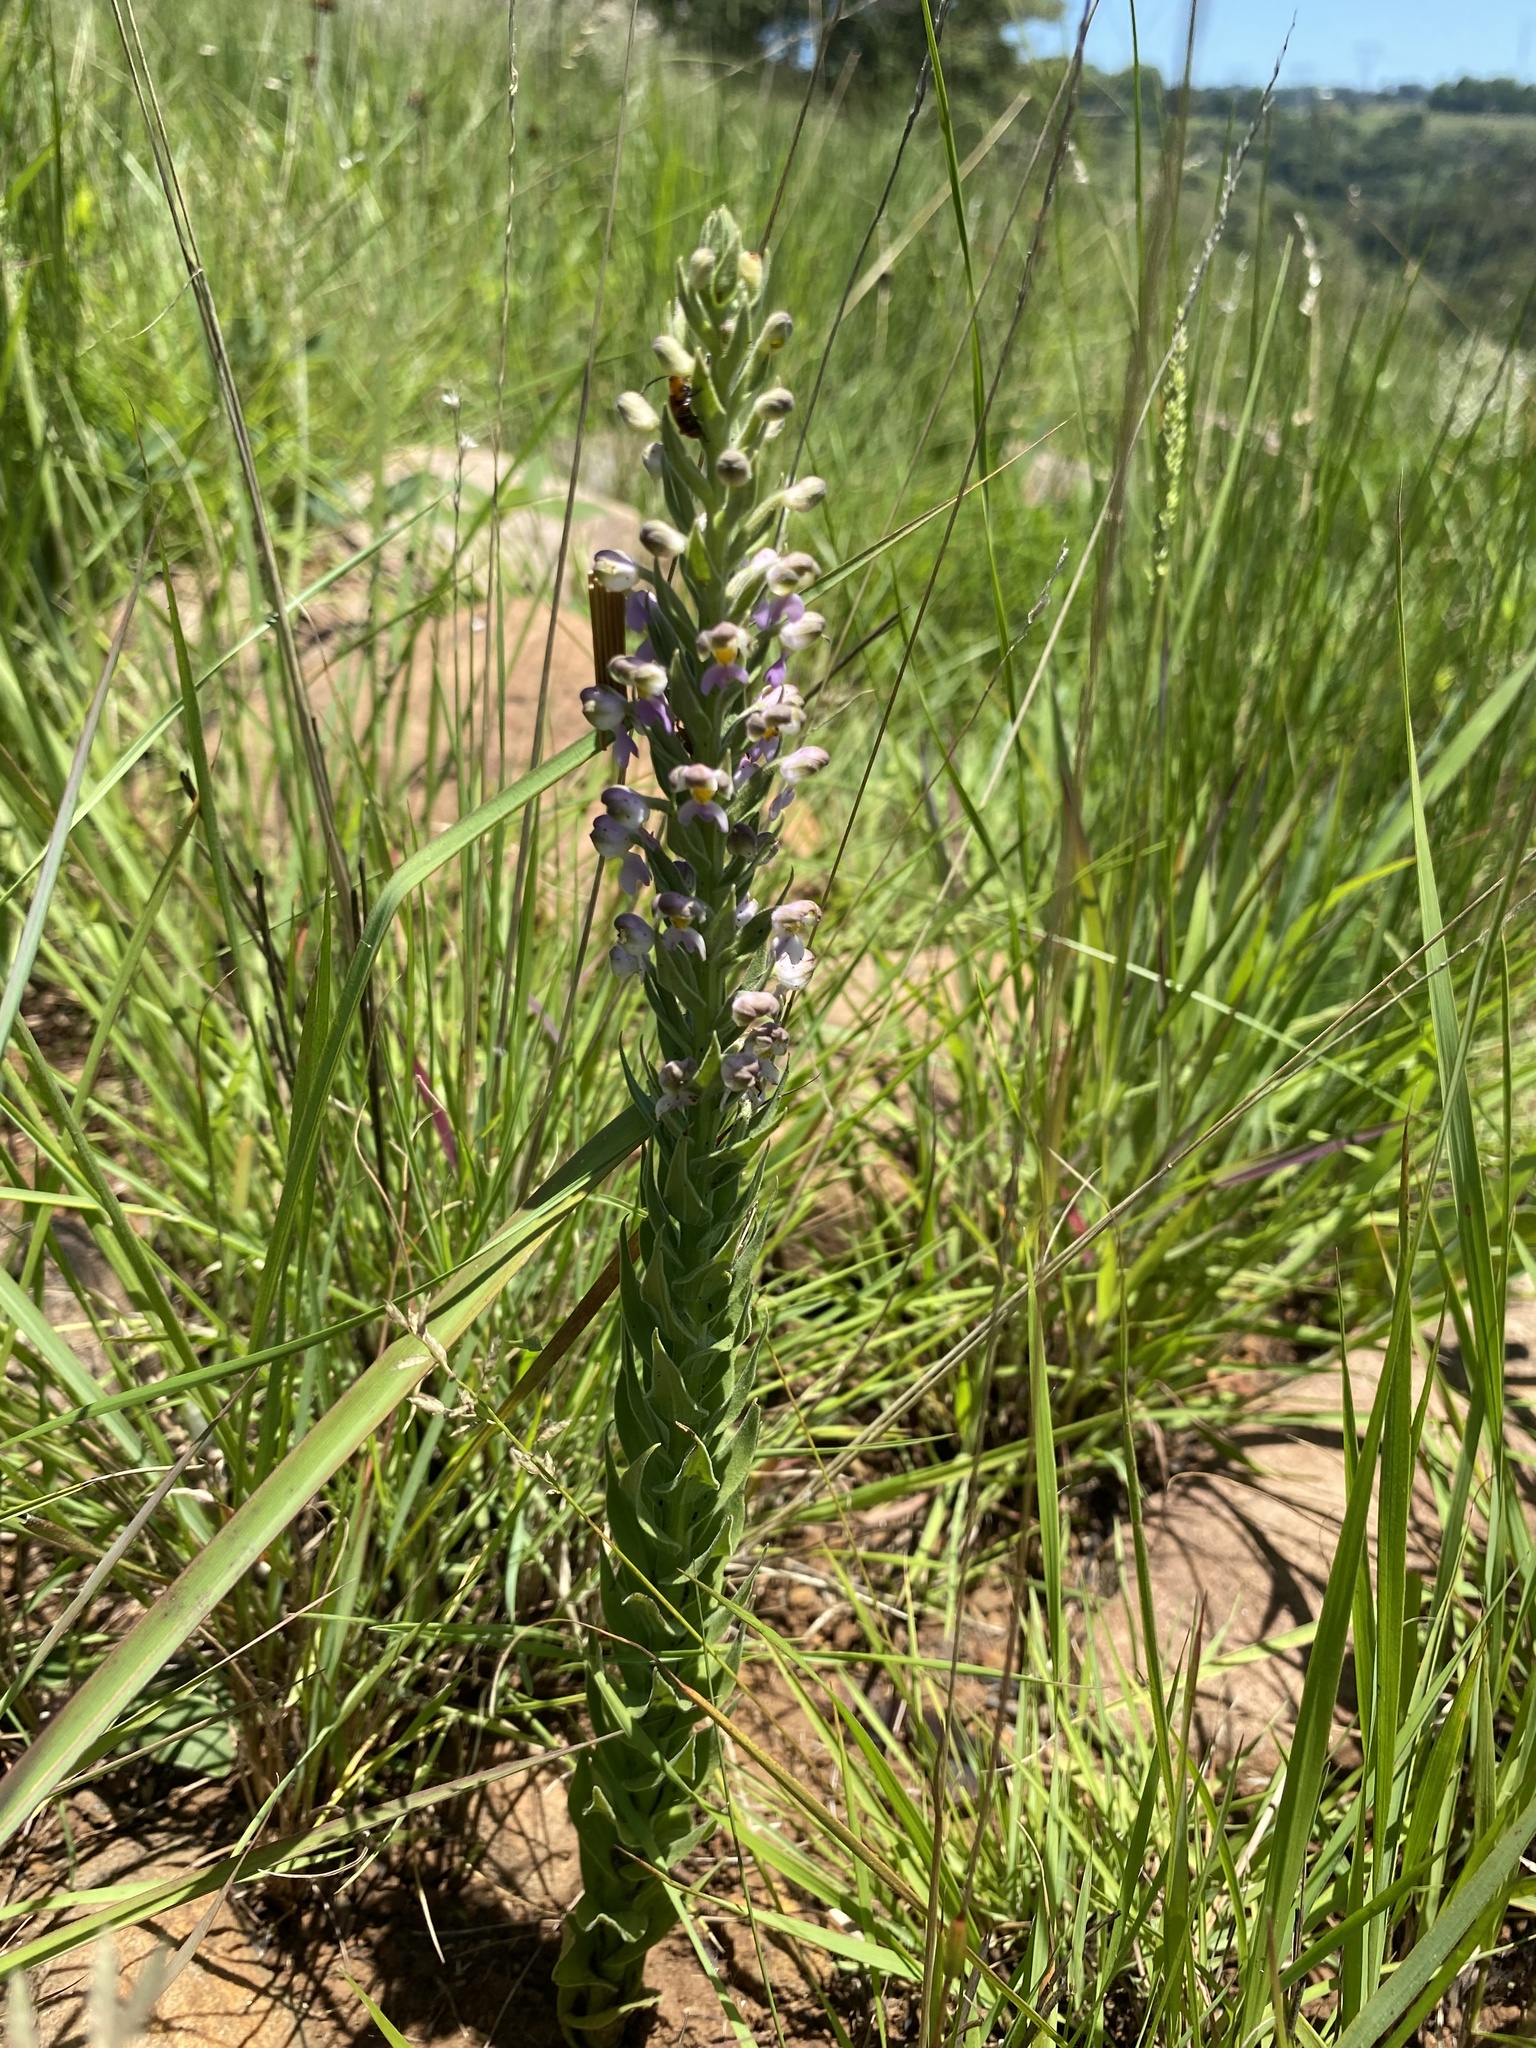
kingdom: Plantae
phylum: Tracheophyta
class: Liliopsida
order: Asparagales
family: Orchidaceae
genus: Brachycorythis
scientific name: Brachycorythis pubescens
